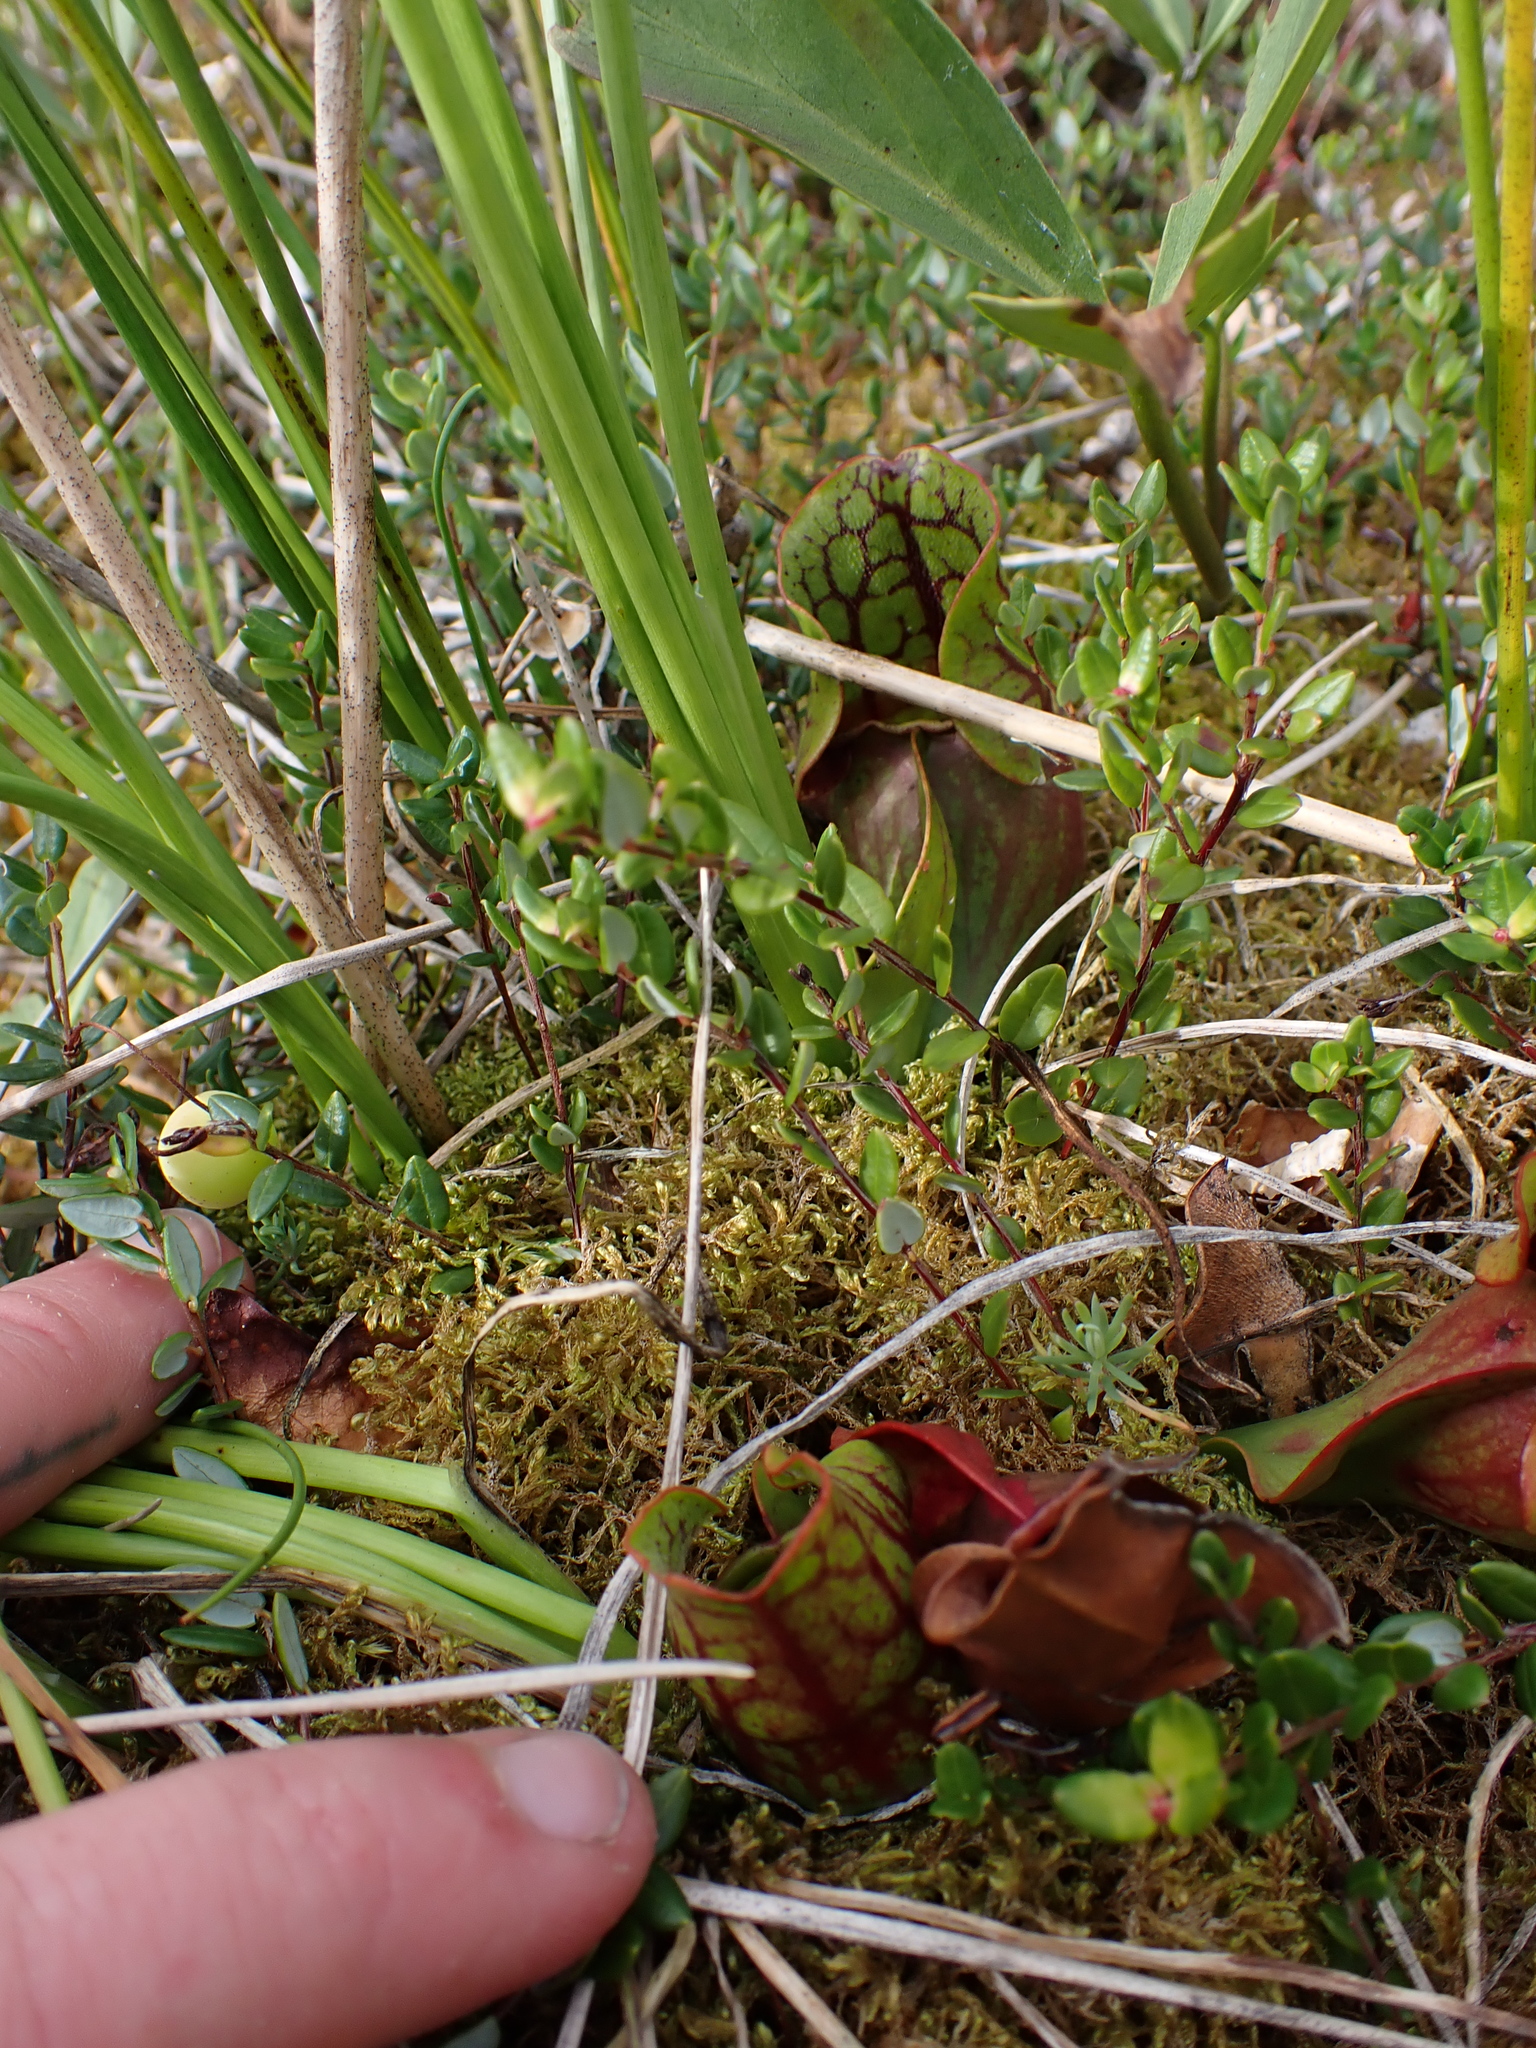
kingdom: Plantae
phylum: Tracheophyta
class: Magnoliopsida
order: Ericales
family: Sarraceniaceae
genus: Sarracenia
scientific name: Sarracenia purpurea
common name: Pitcherplant
